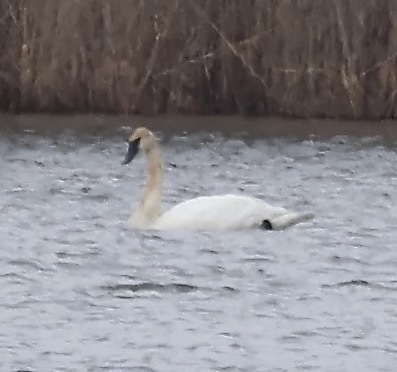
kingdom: Animalia
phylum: Chordata
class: Aves
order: Anseriformes
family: Anatidae
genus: Cygnus
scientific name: Cygnus buccinator
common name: Trumpeter swan
